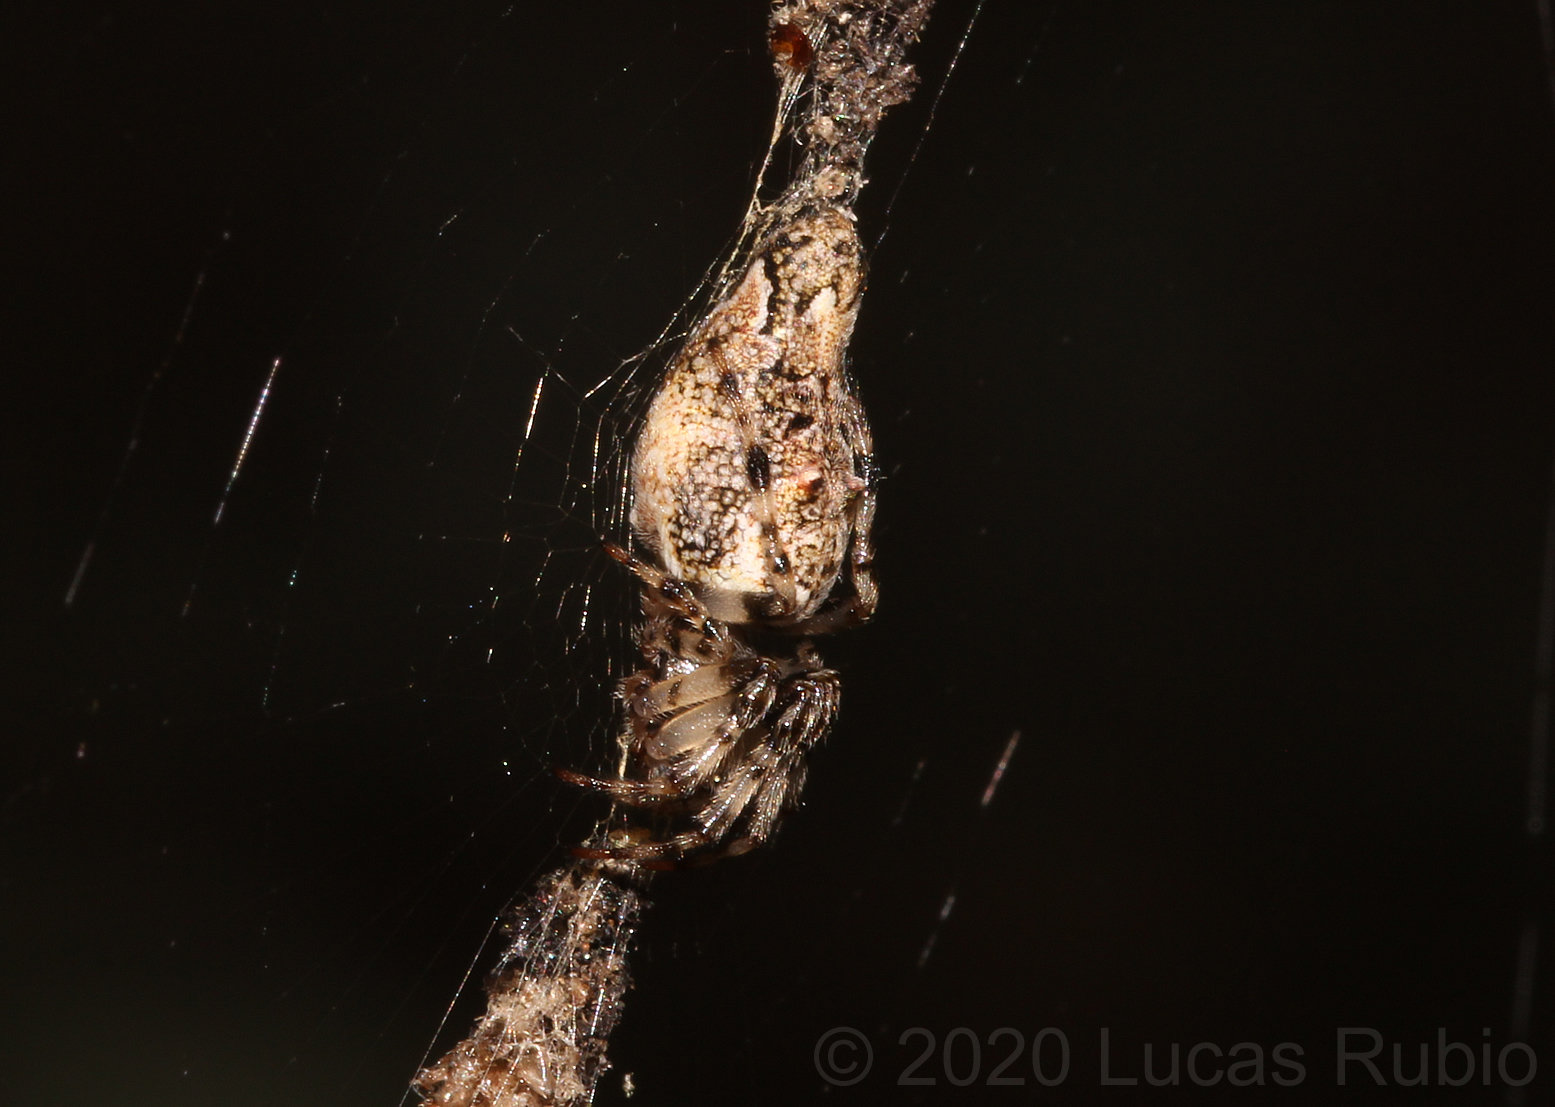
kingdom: Animalia
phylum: Arthropoda
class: Arachnida
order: Araneae
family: Araneidae
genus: Cyclosa
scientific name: Cyclosa machadinho
